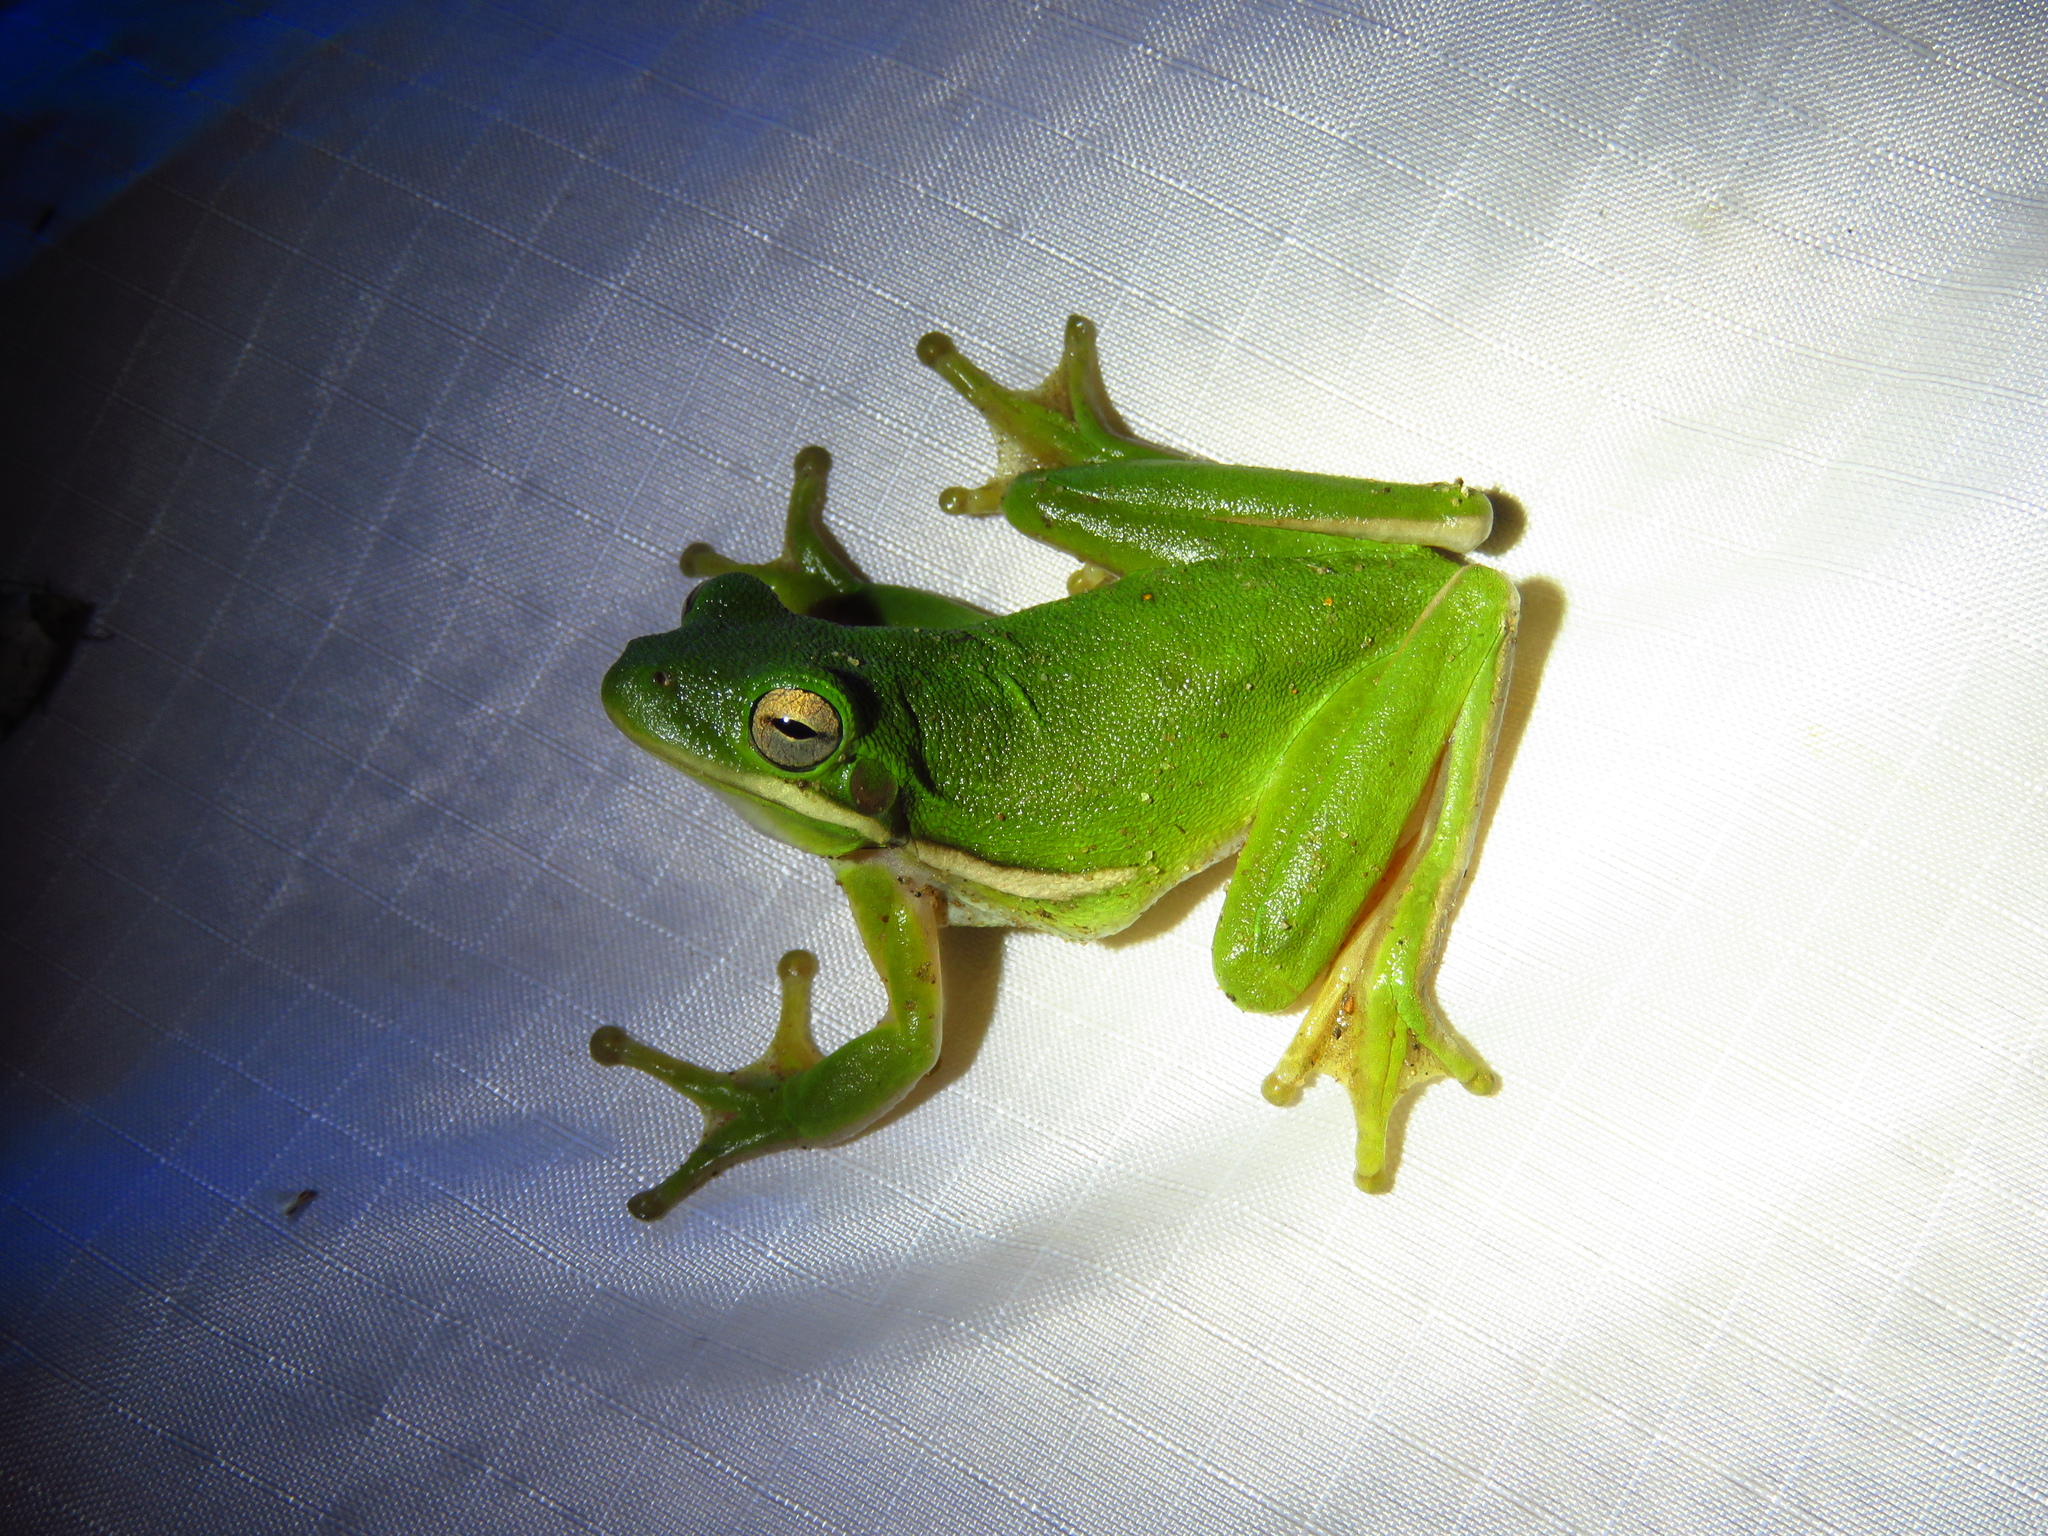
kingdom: Animalia
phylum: Chordata
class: Amphibia
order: Anura
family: Hylidae
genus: Dryophytes
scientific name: Dryophytes cinereus
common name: Green treefrog
